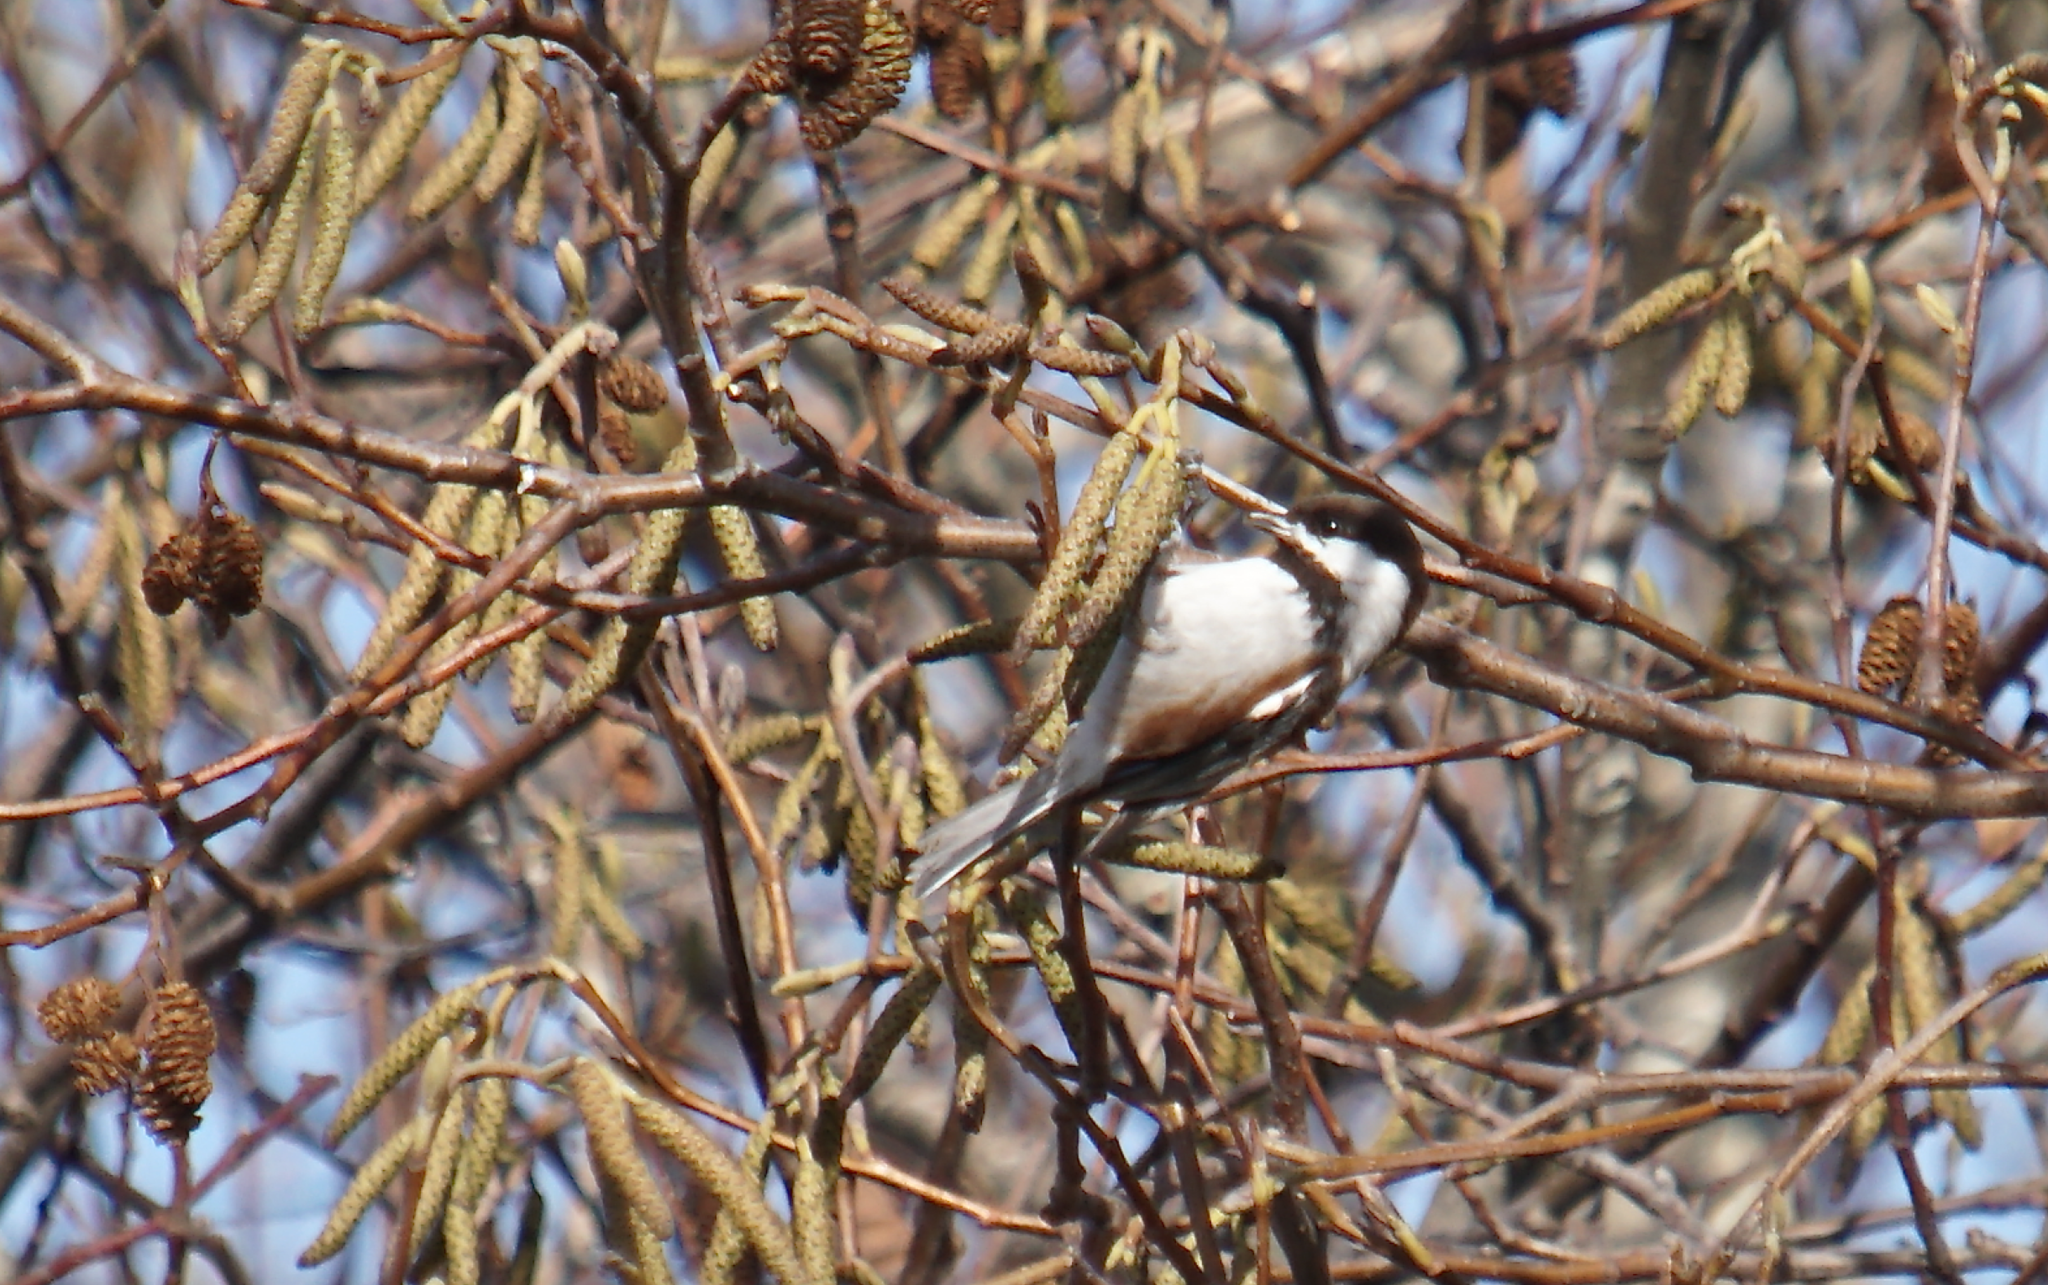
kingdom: Animalia
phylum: Chordata
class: Aves
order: Passeriformes
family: Paridae
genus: Poecile
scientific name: Poecile rufescens
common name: Chestnut-backed chickadee
